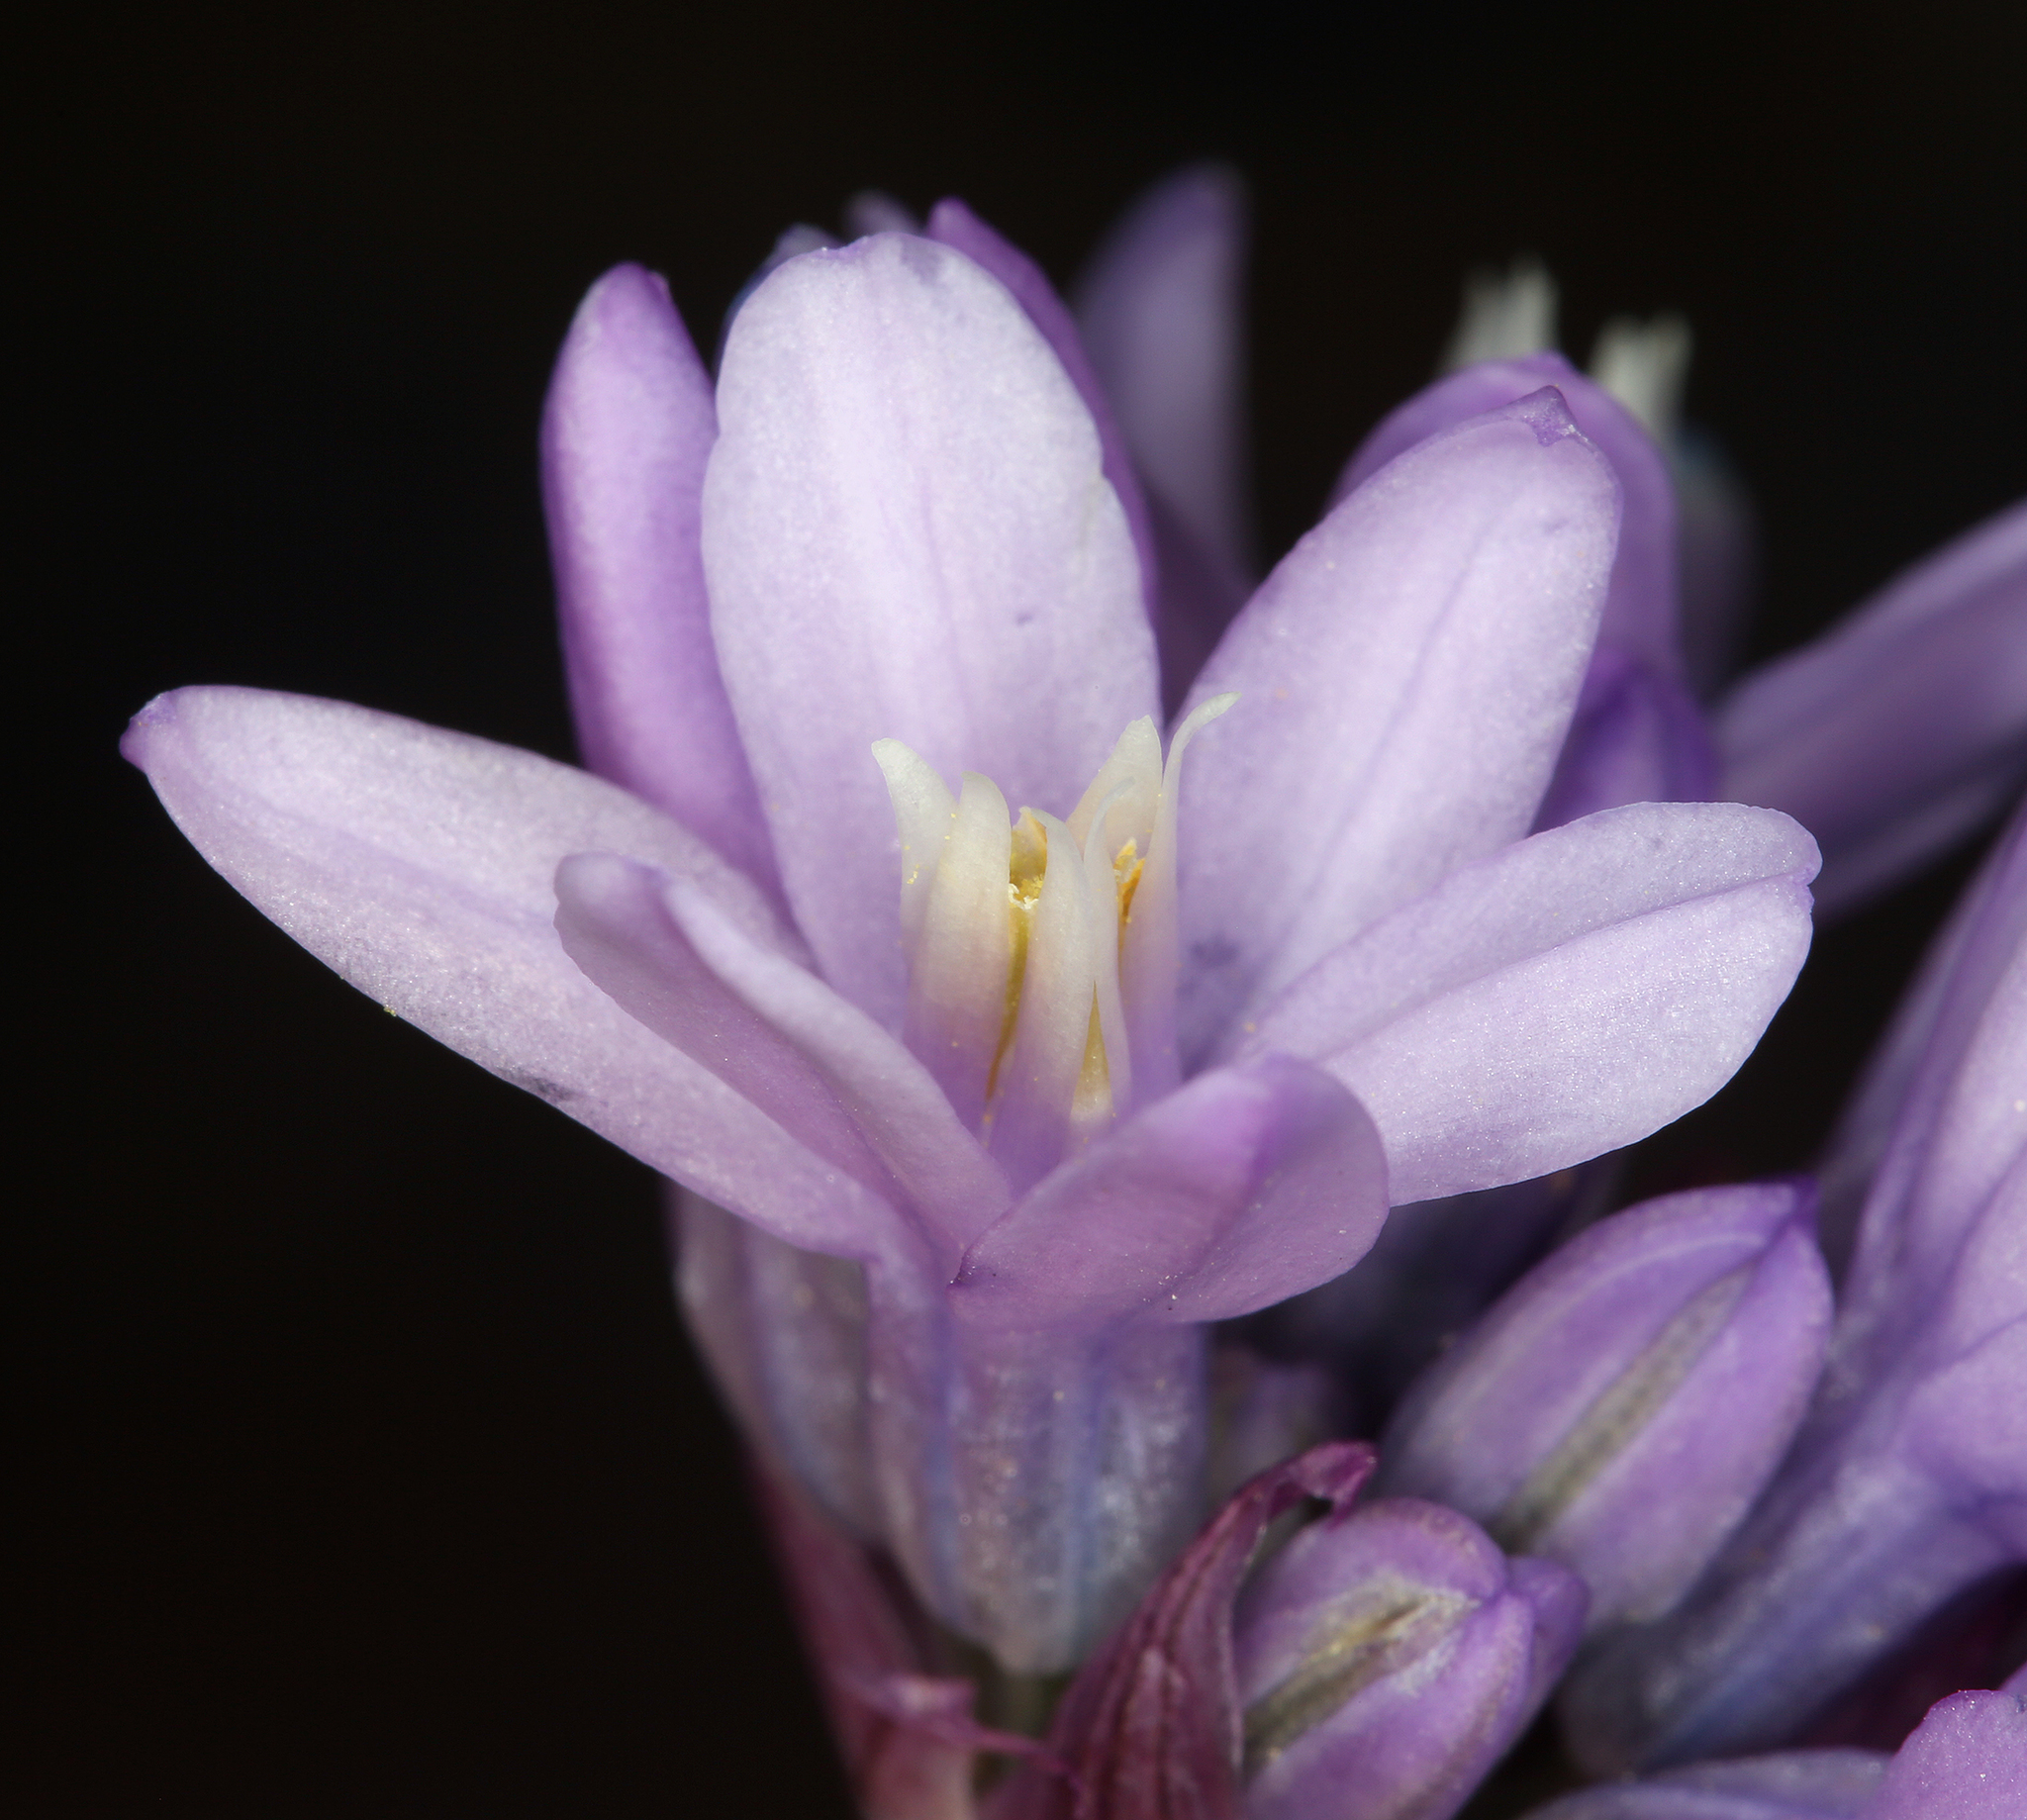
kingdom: Plantae
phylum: Tracheophyta
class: Liliopsida
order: Asparagales
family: Asparagaceae
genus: Dipterostemon
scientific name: Dipterostemon capitatus
